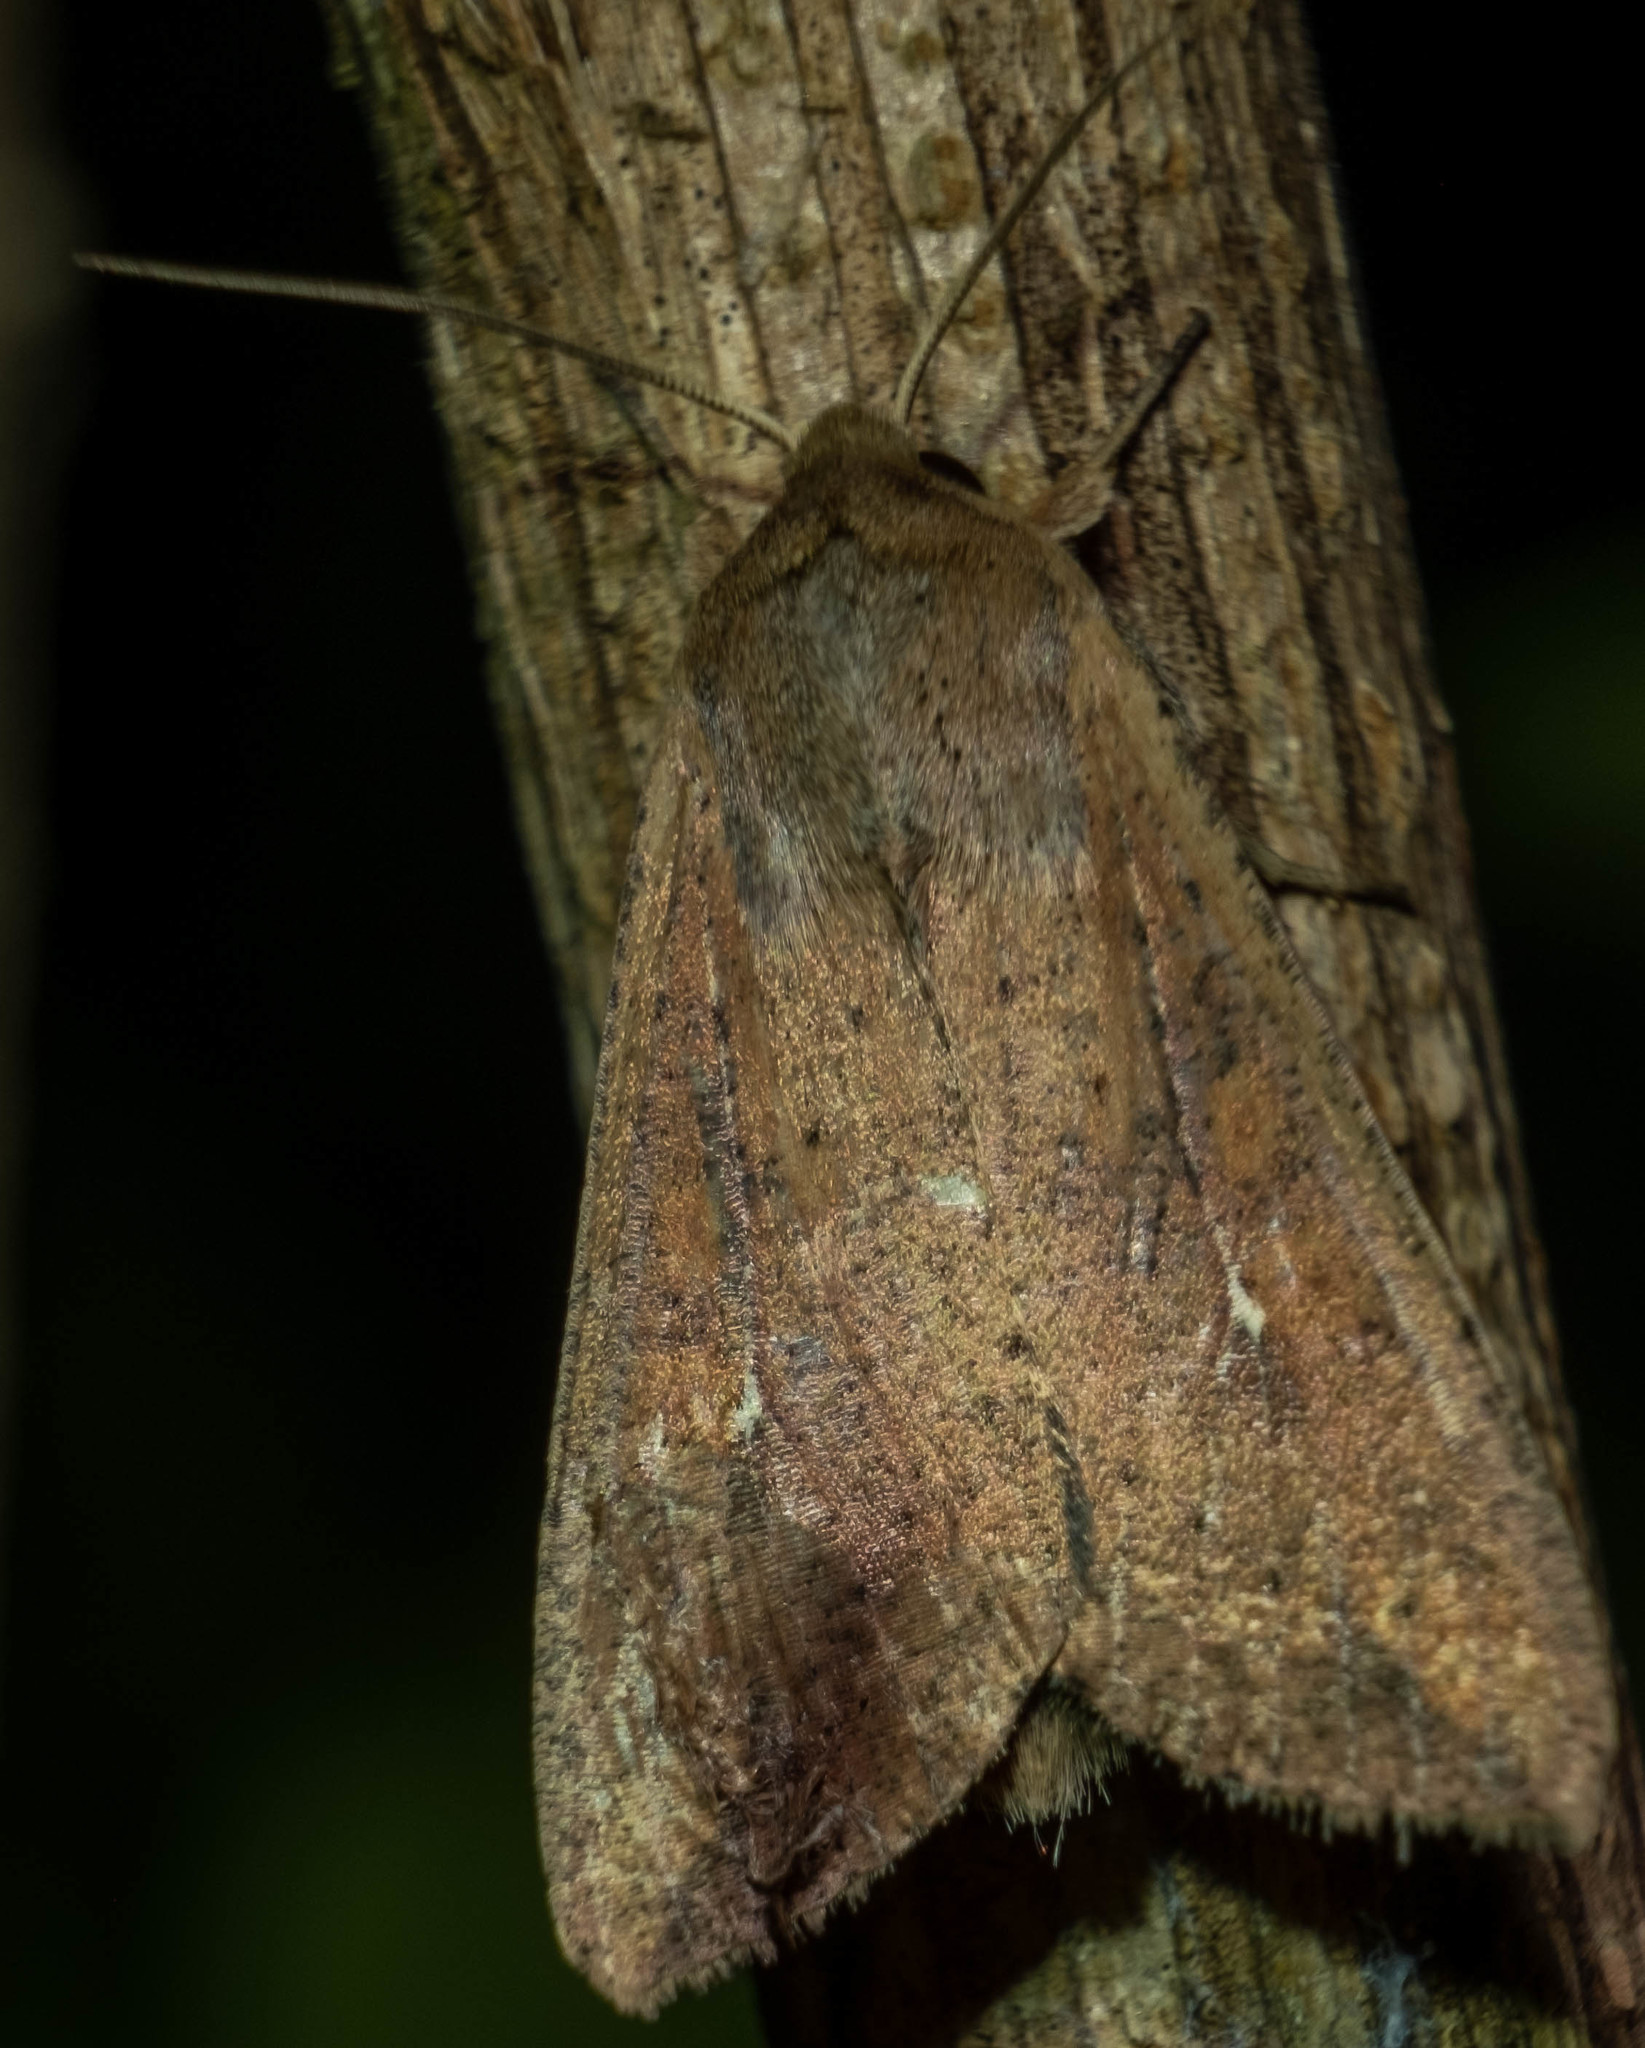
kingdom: Animalia
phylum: Arthropoda
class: Insecta
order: Lepidoptera
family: Noctuidae
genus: Mythimna
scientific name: Mythimna unipuncta
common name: White-speck
